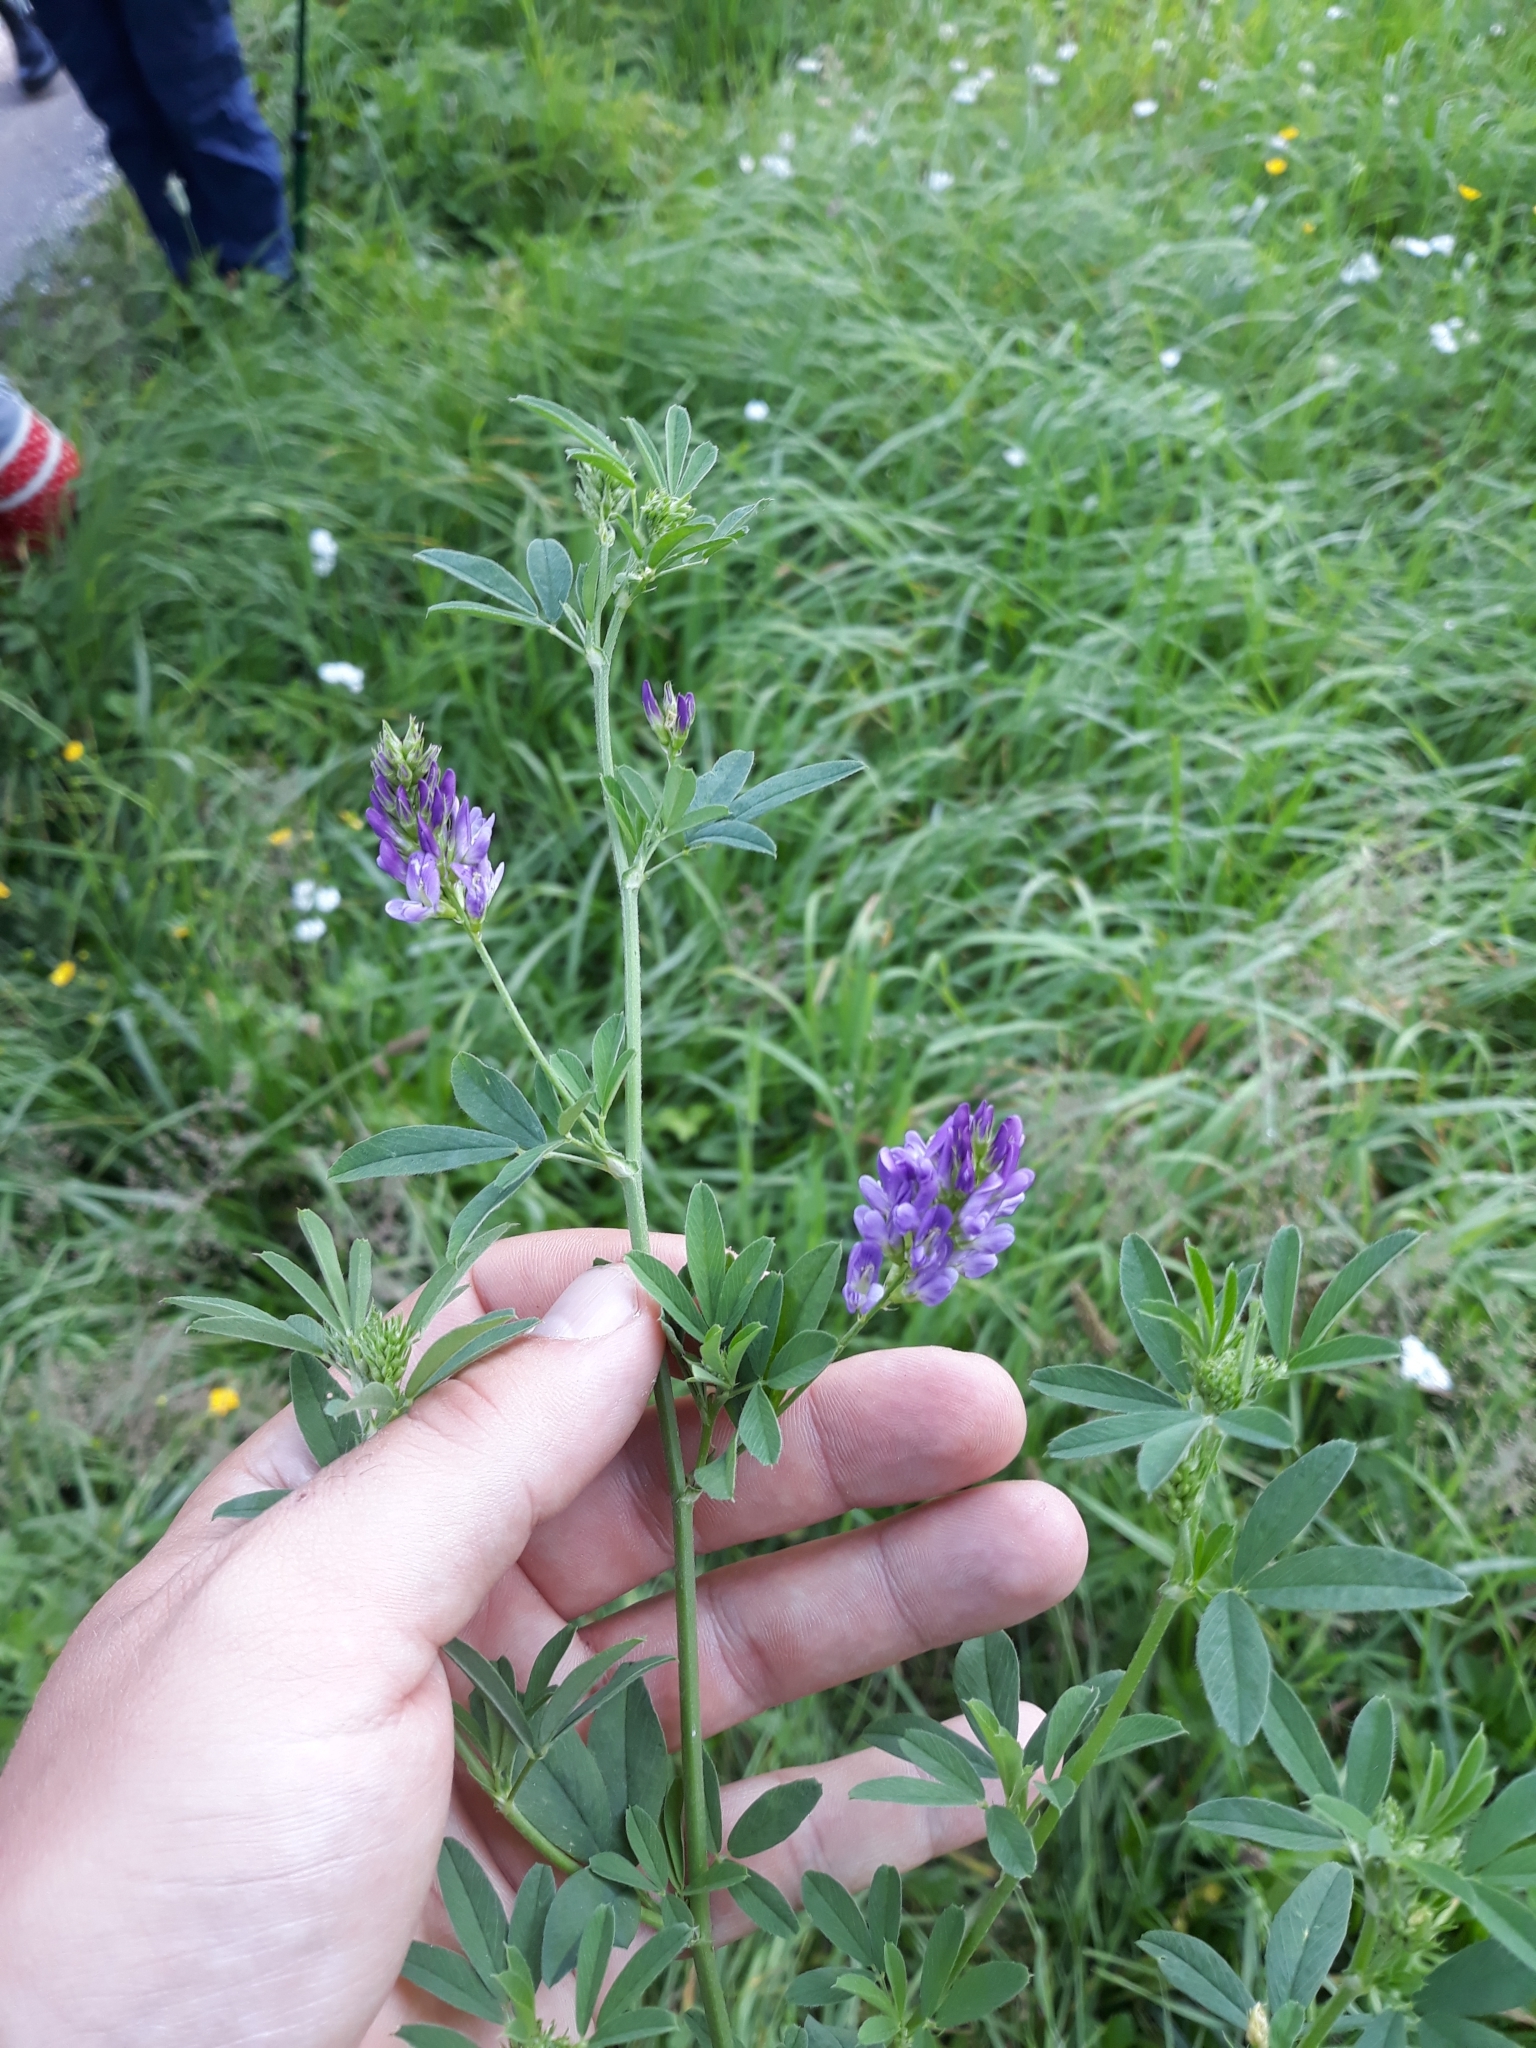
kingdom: Plantae
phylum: Tracheophyta
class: Magnoliopsida
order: Fabales
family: Fabaceae
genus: Medicago
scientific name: Medicago sativa
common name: Alfalfa
